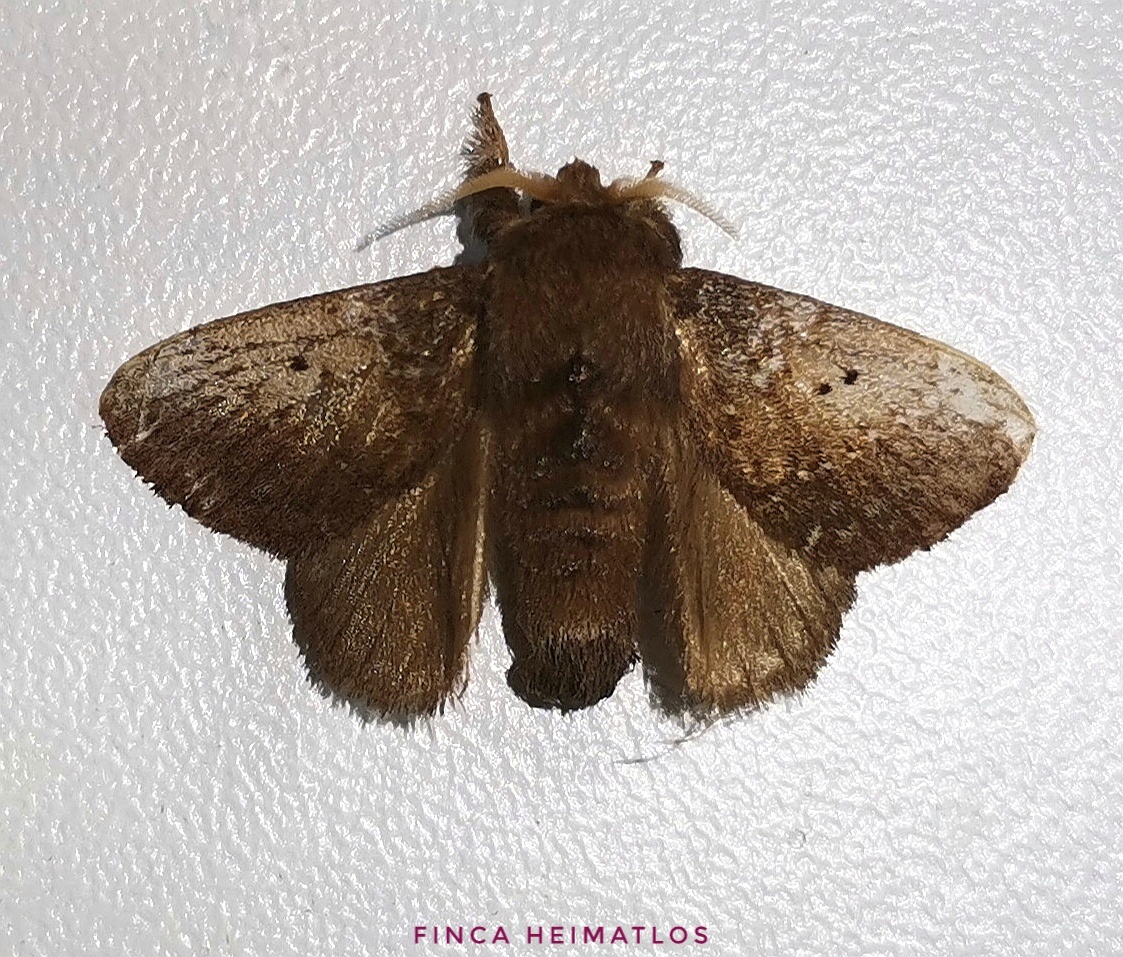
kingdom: Animalia
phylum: Arthropoda
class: Insecta
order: Lepidoptera
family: Lasiocampidae
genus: Euglyphis
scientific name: Euglyphis bipuncta
